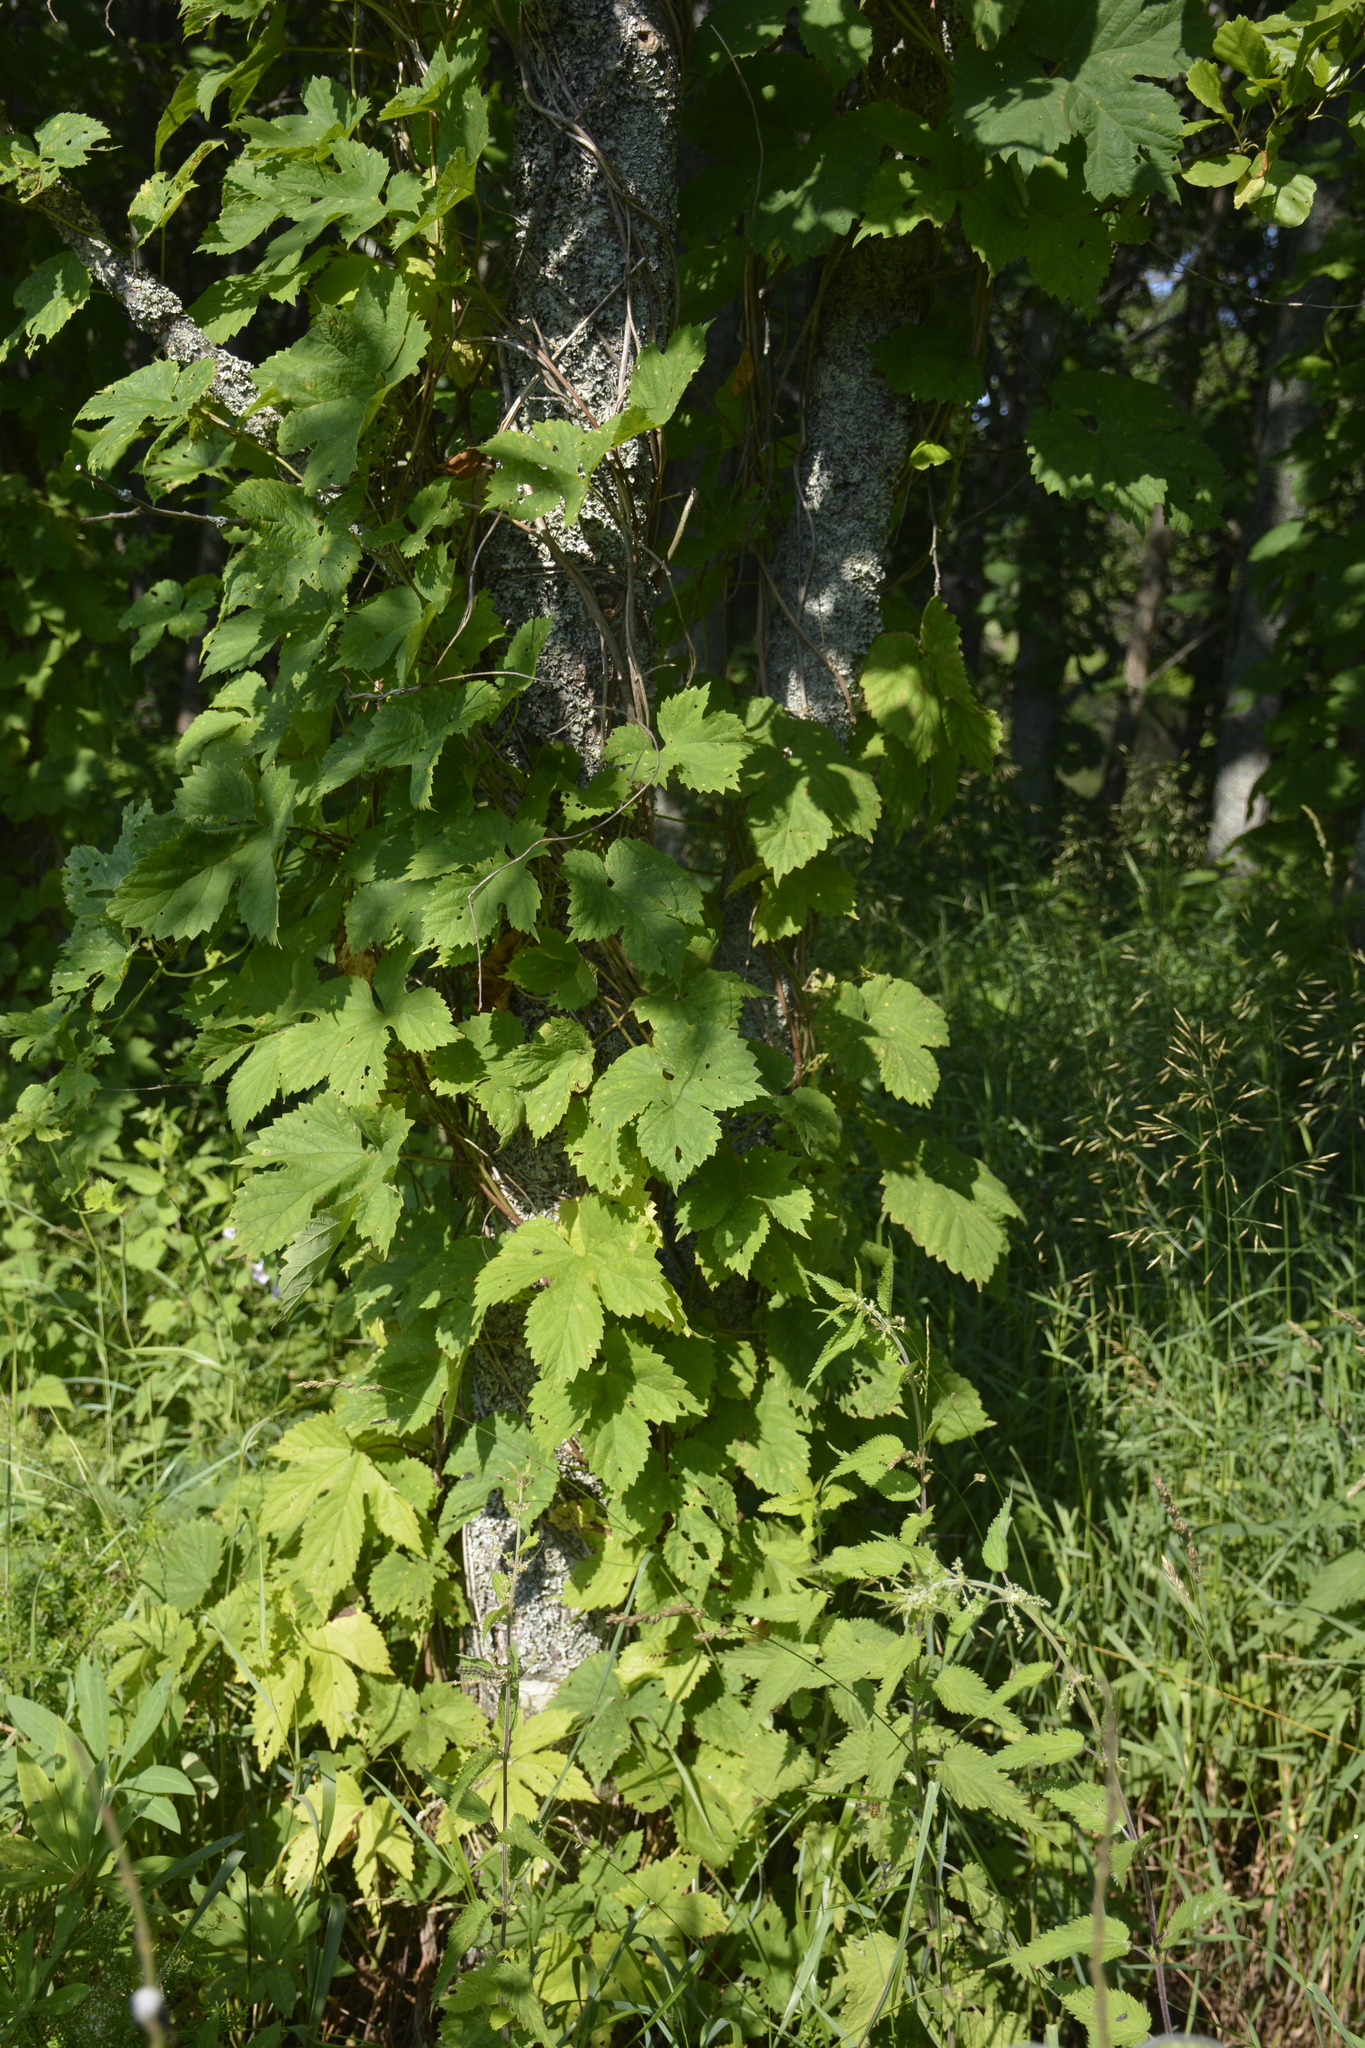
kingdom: Plantae
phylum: Tracheophyta
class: Magnoliopsida
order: Rosales
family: Cannabaceae
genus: Humulus
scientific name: Humulus lupulus
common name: Hop
